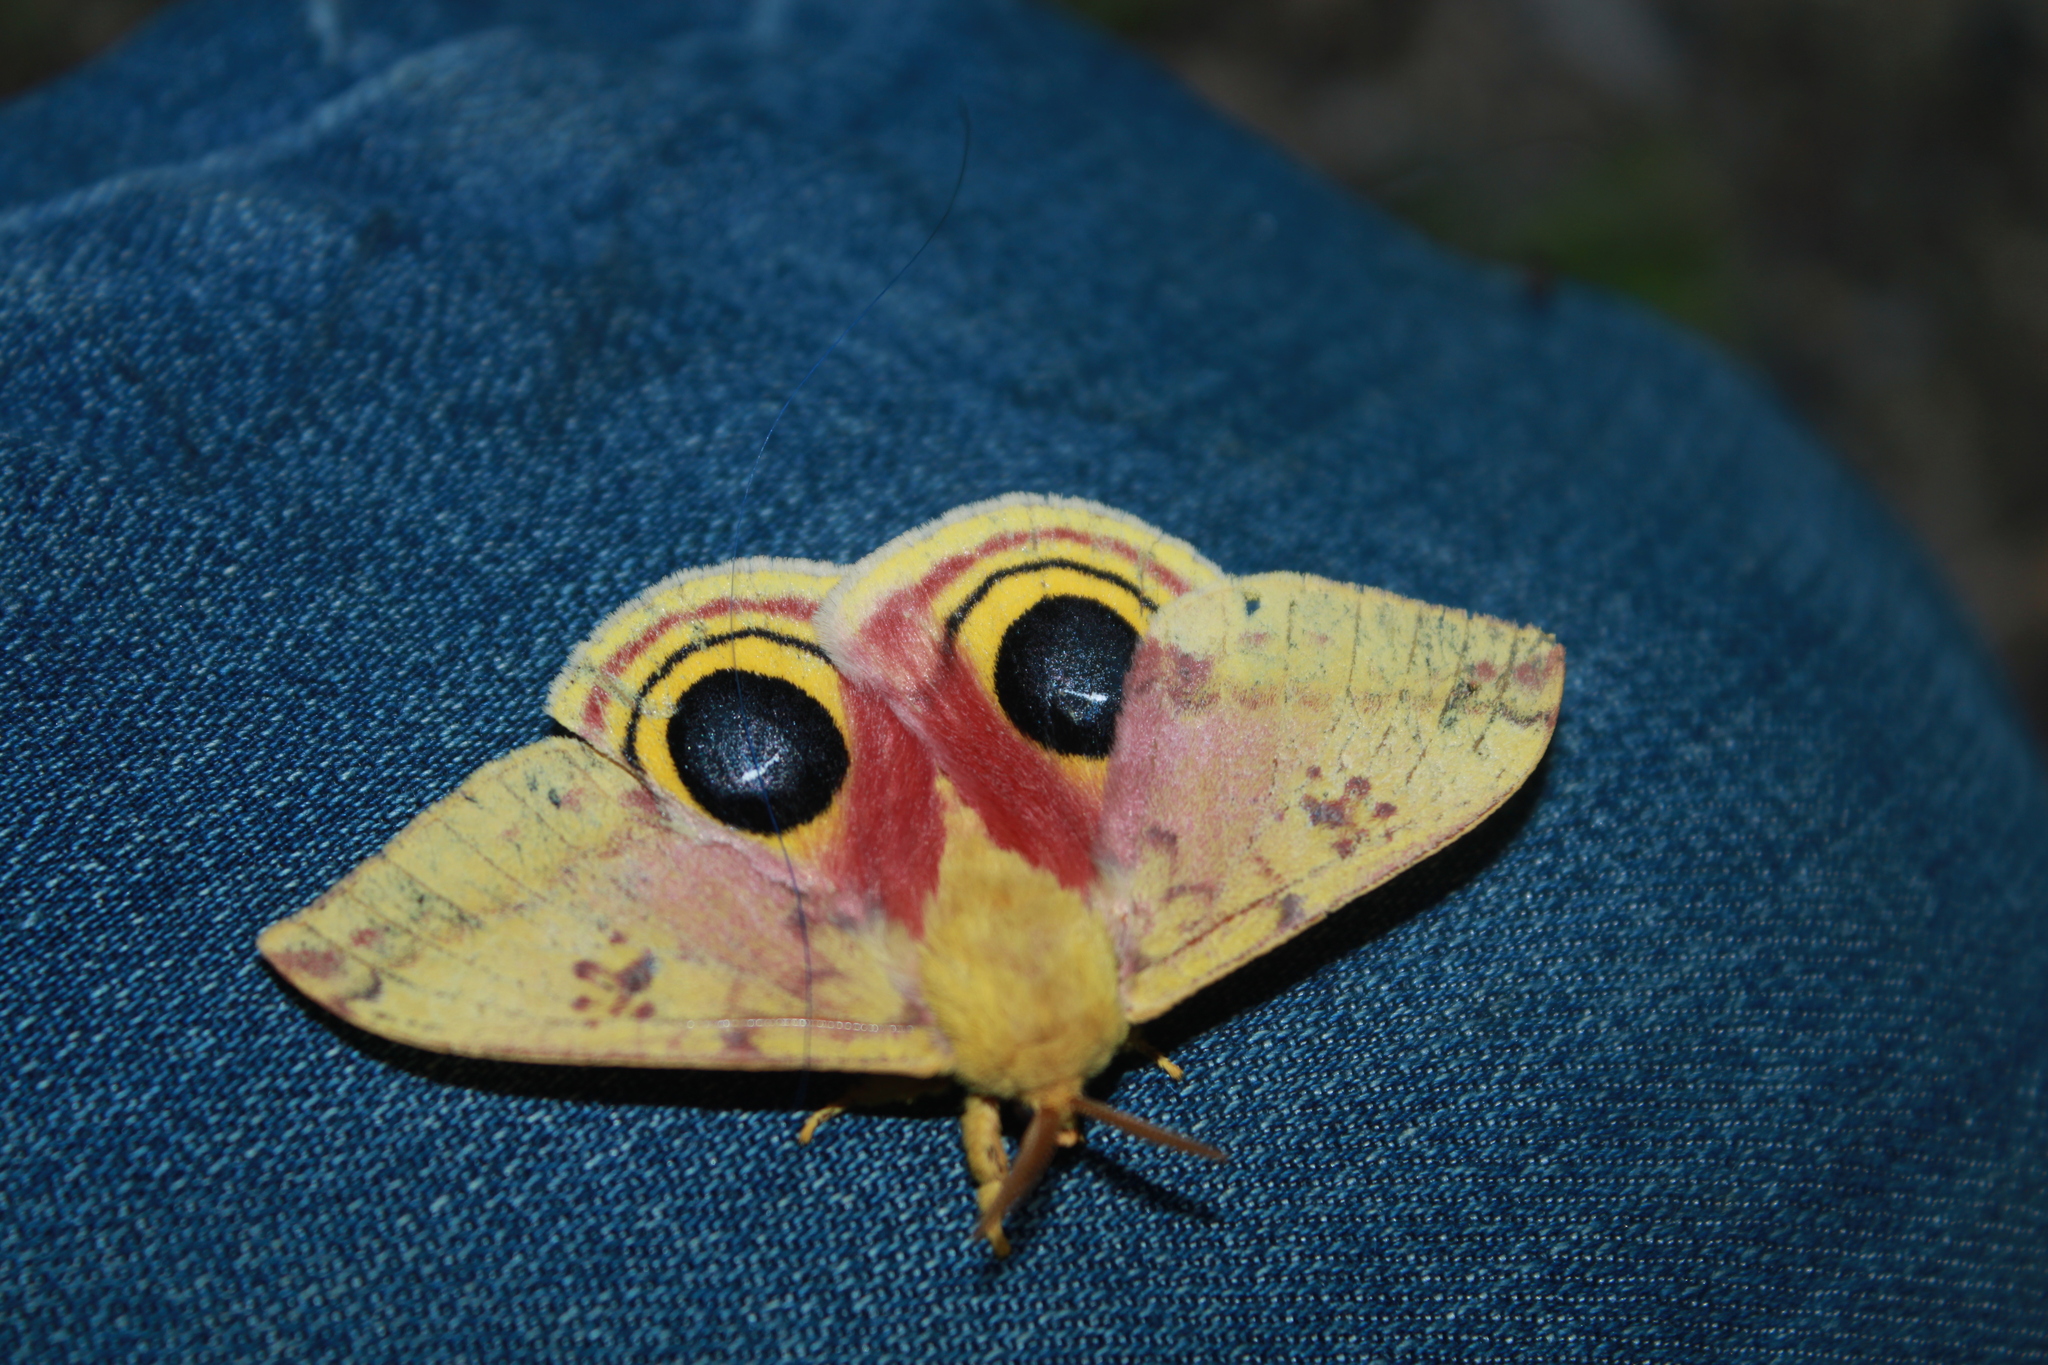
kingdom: Animalia
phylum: Arthropoda
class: Insecta
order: Lepidoptera
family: Saturniidae
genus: Automeris
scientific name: Automeris io
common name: Io moth
